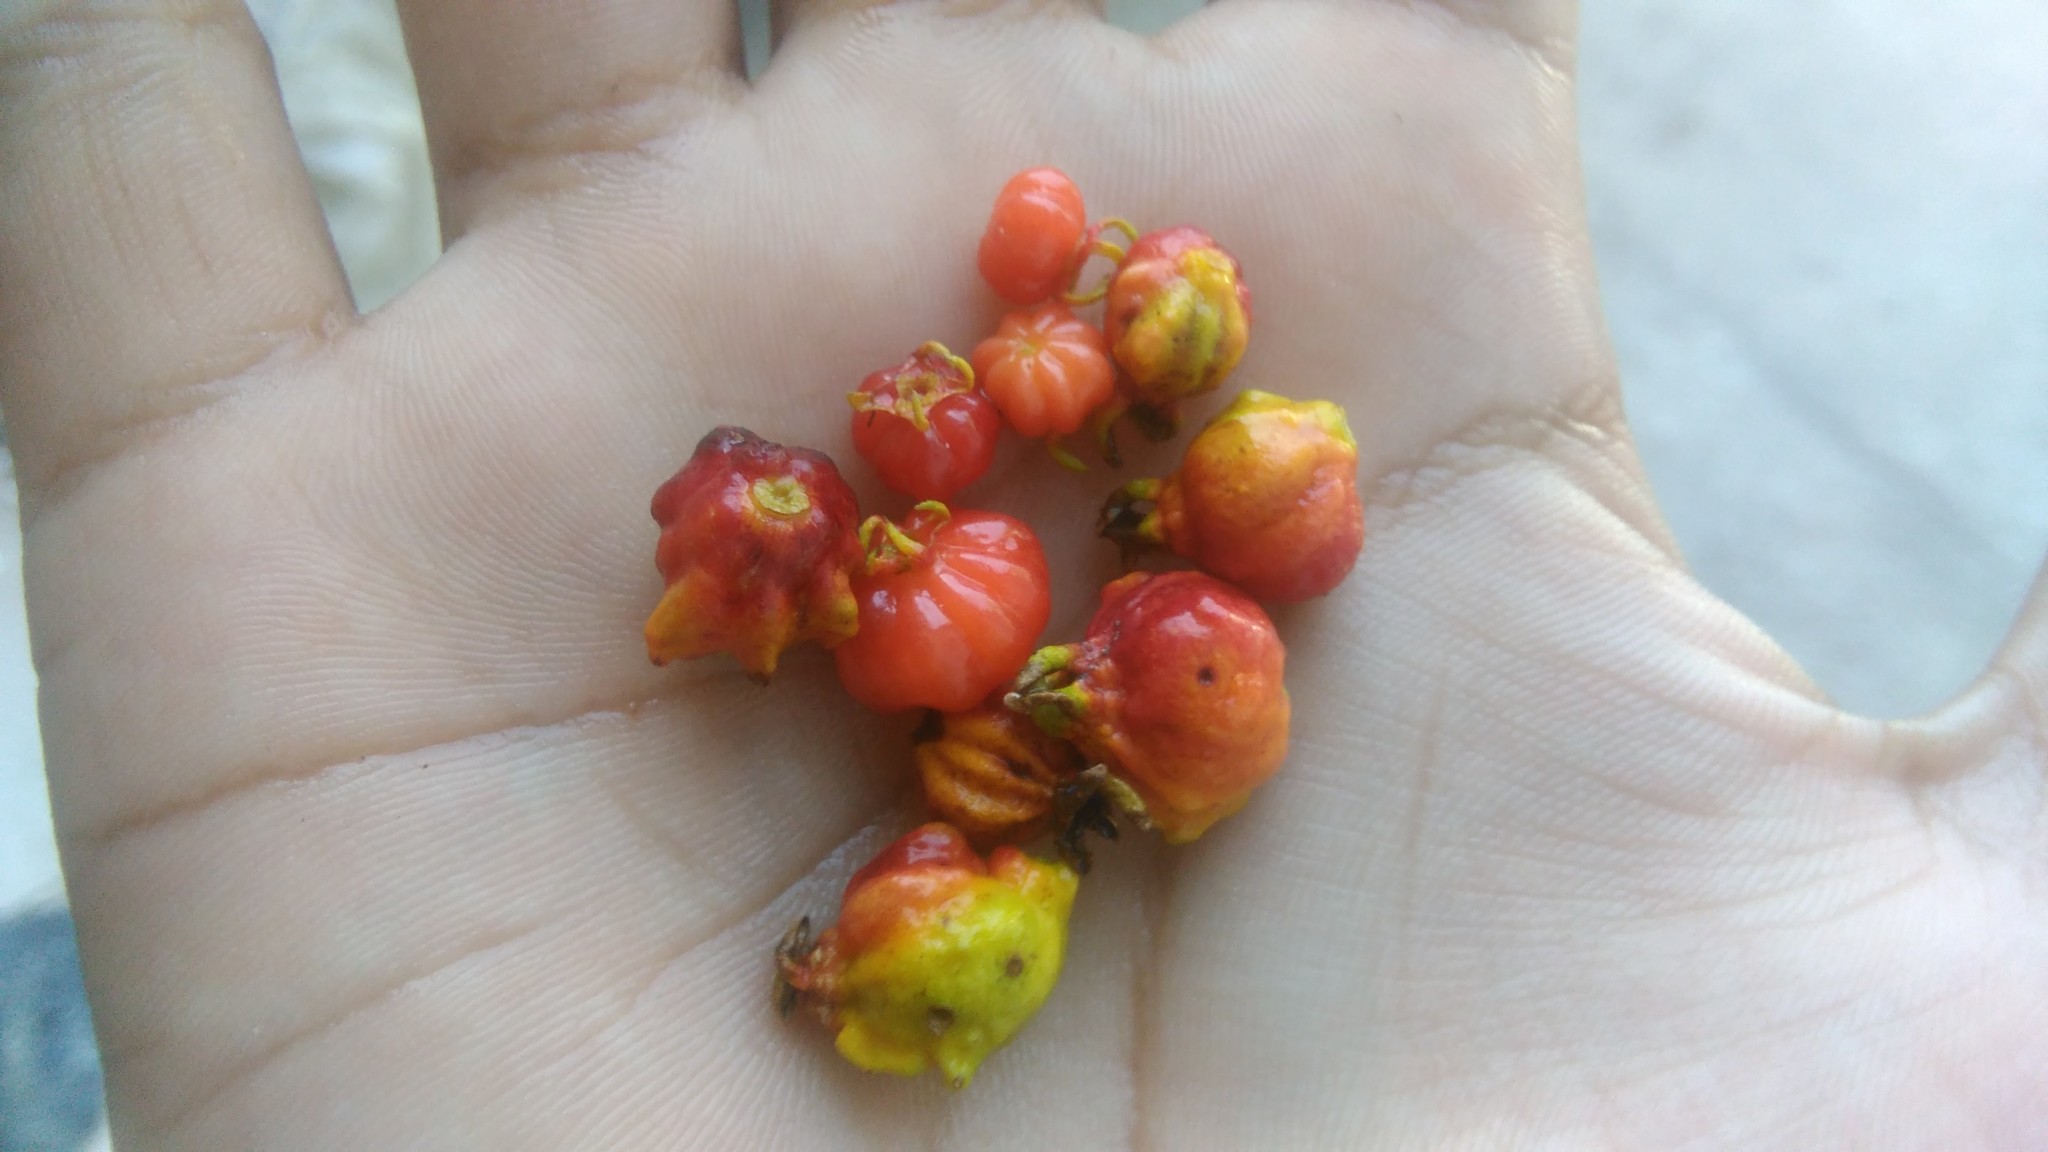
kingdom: Plantae
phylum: Tracheophyta
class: Magnoliopsida
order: Myrtales
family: Myrtaceae
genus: Eugenia
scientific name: Eugenia uniflora
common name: Surinam cherry
